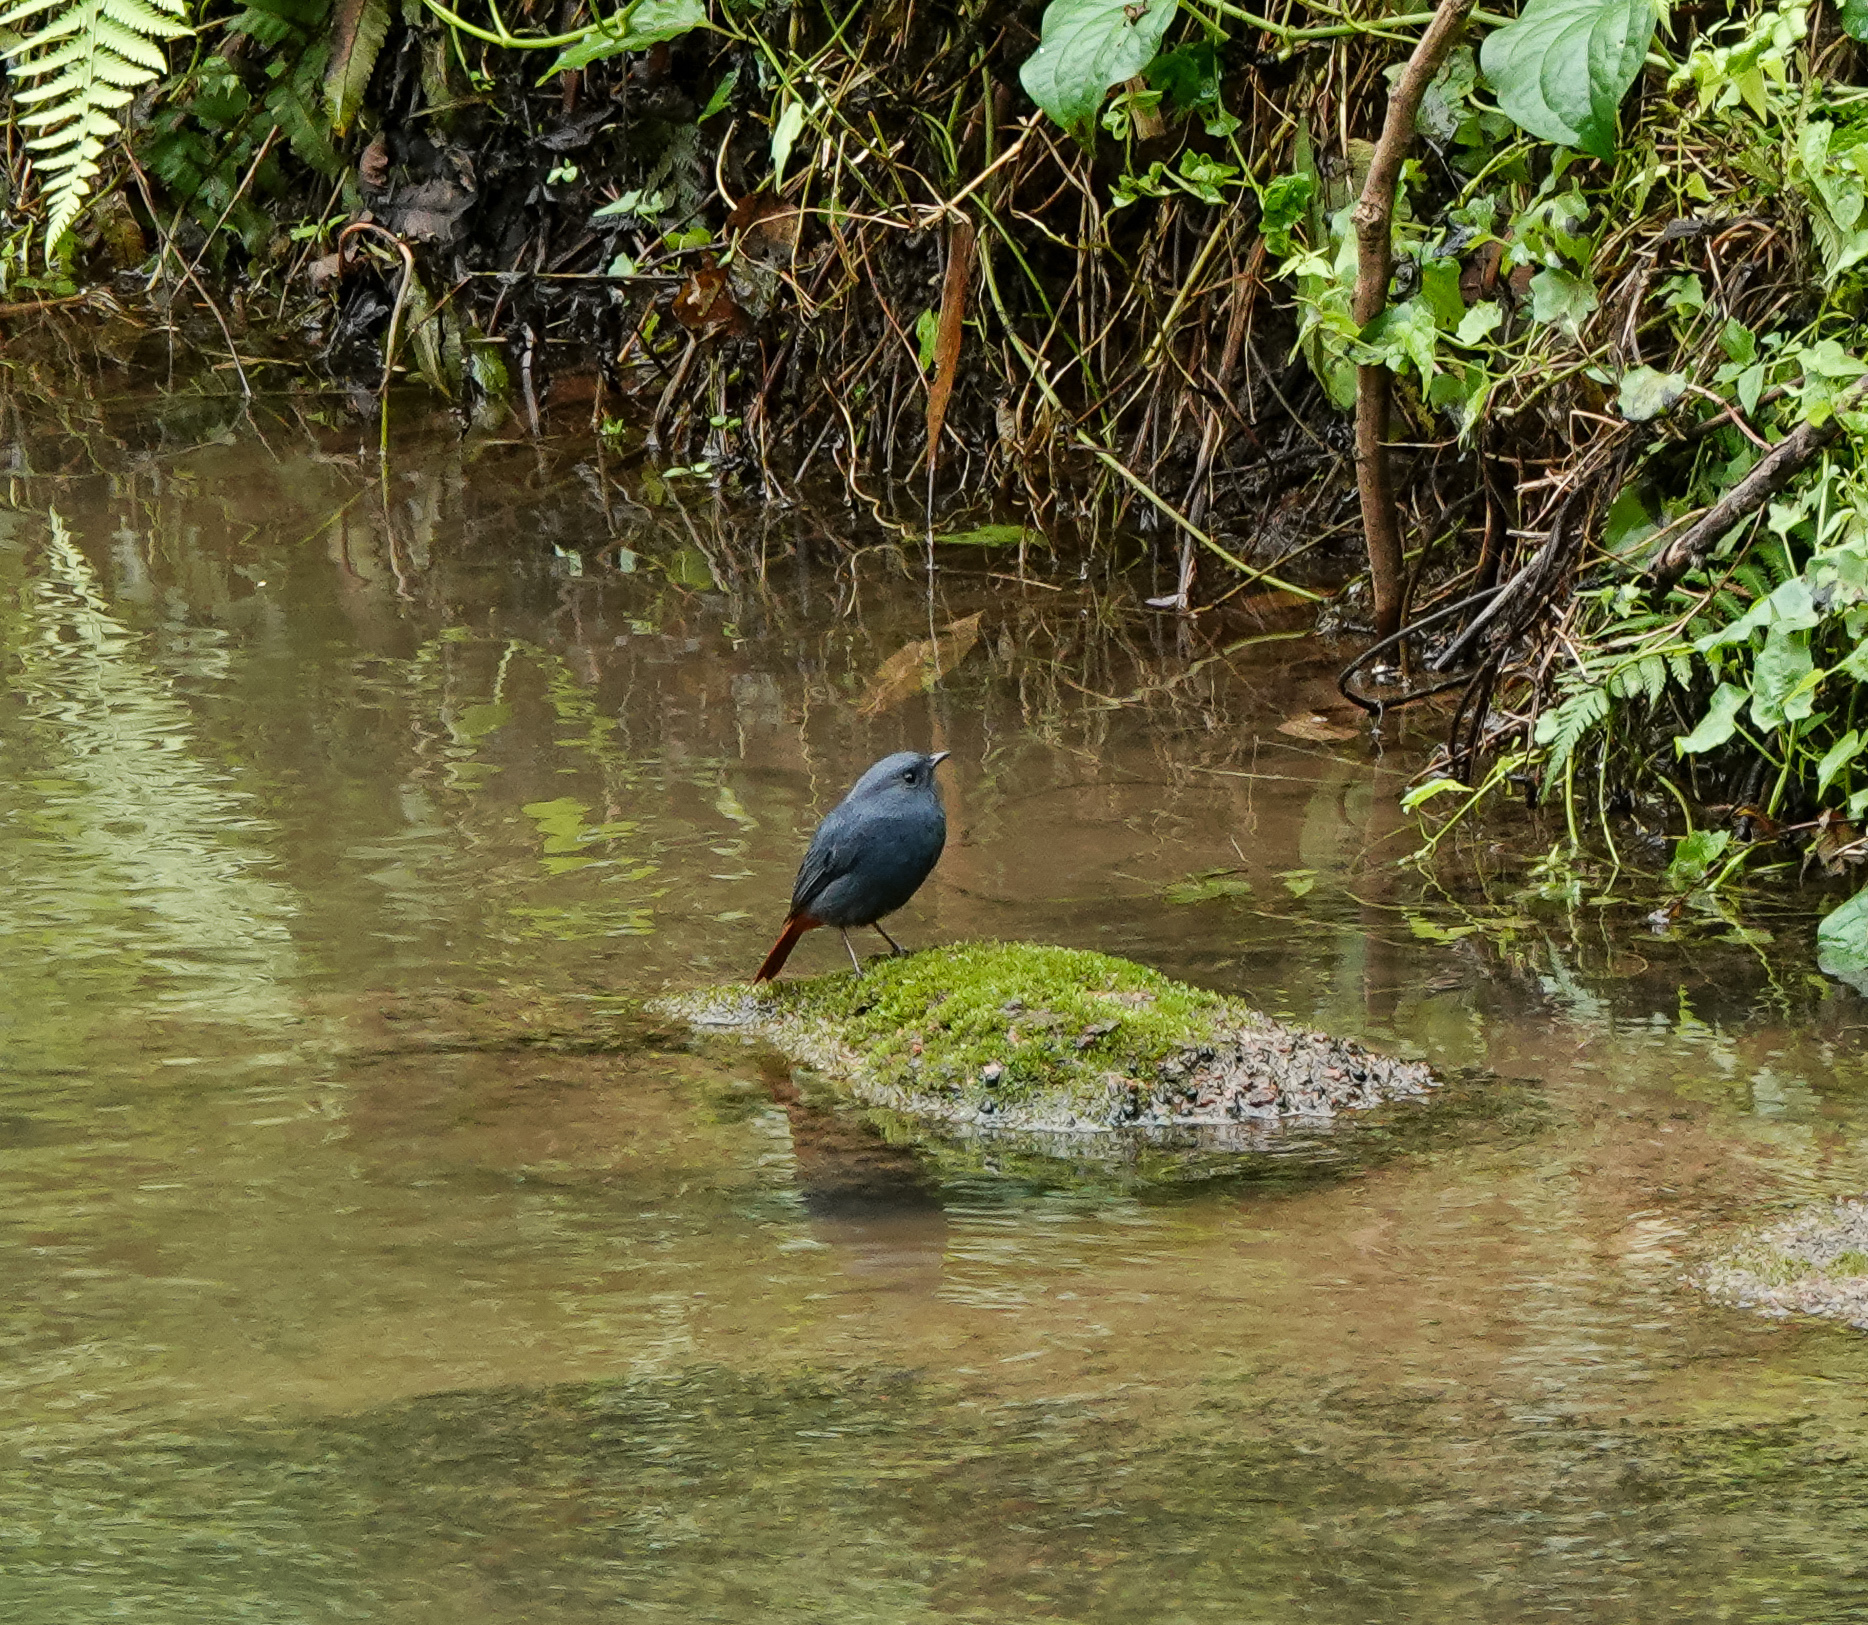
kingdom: Animalia
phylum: Chordata
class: Aves
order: Passeriformes
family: Muscicapidae
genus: Phoenicurus
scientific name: Phoenicurus fuliginosus
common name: Plumbeous water redstart
